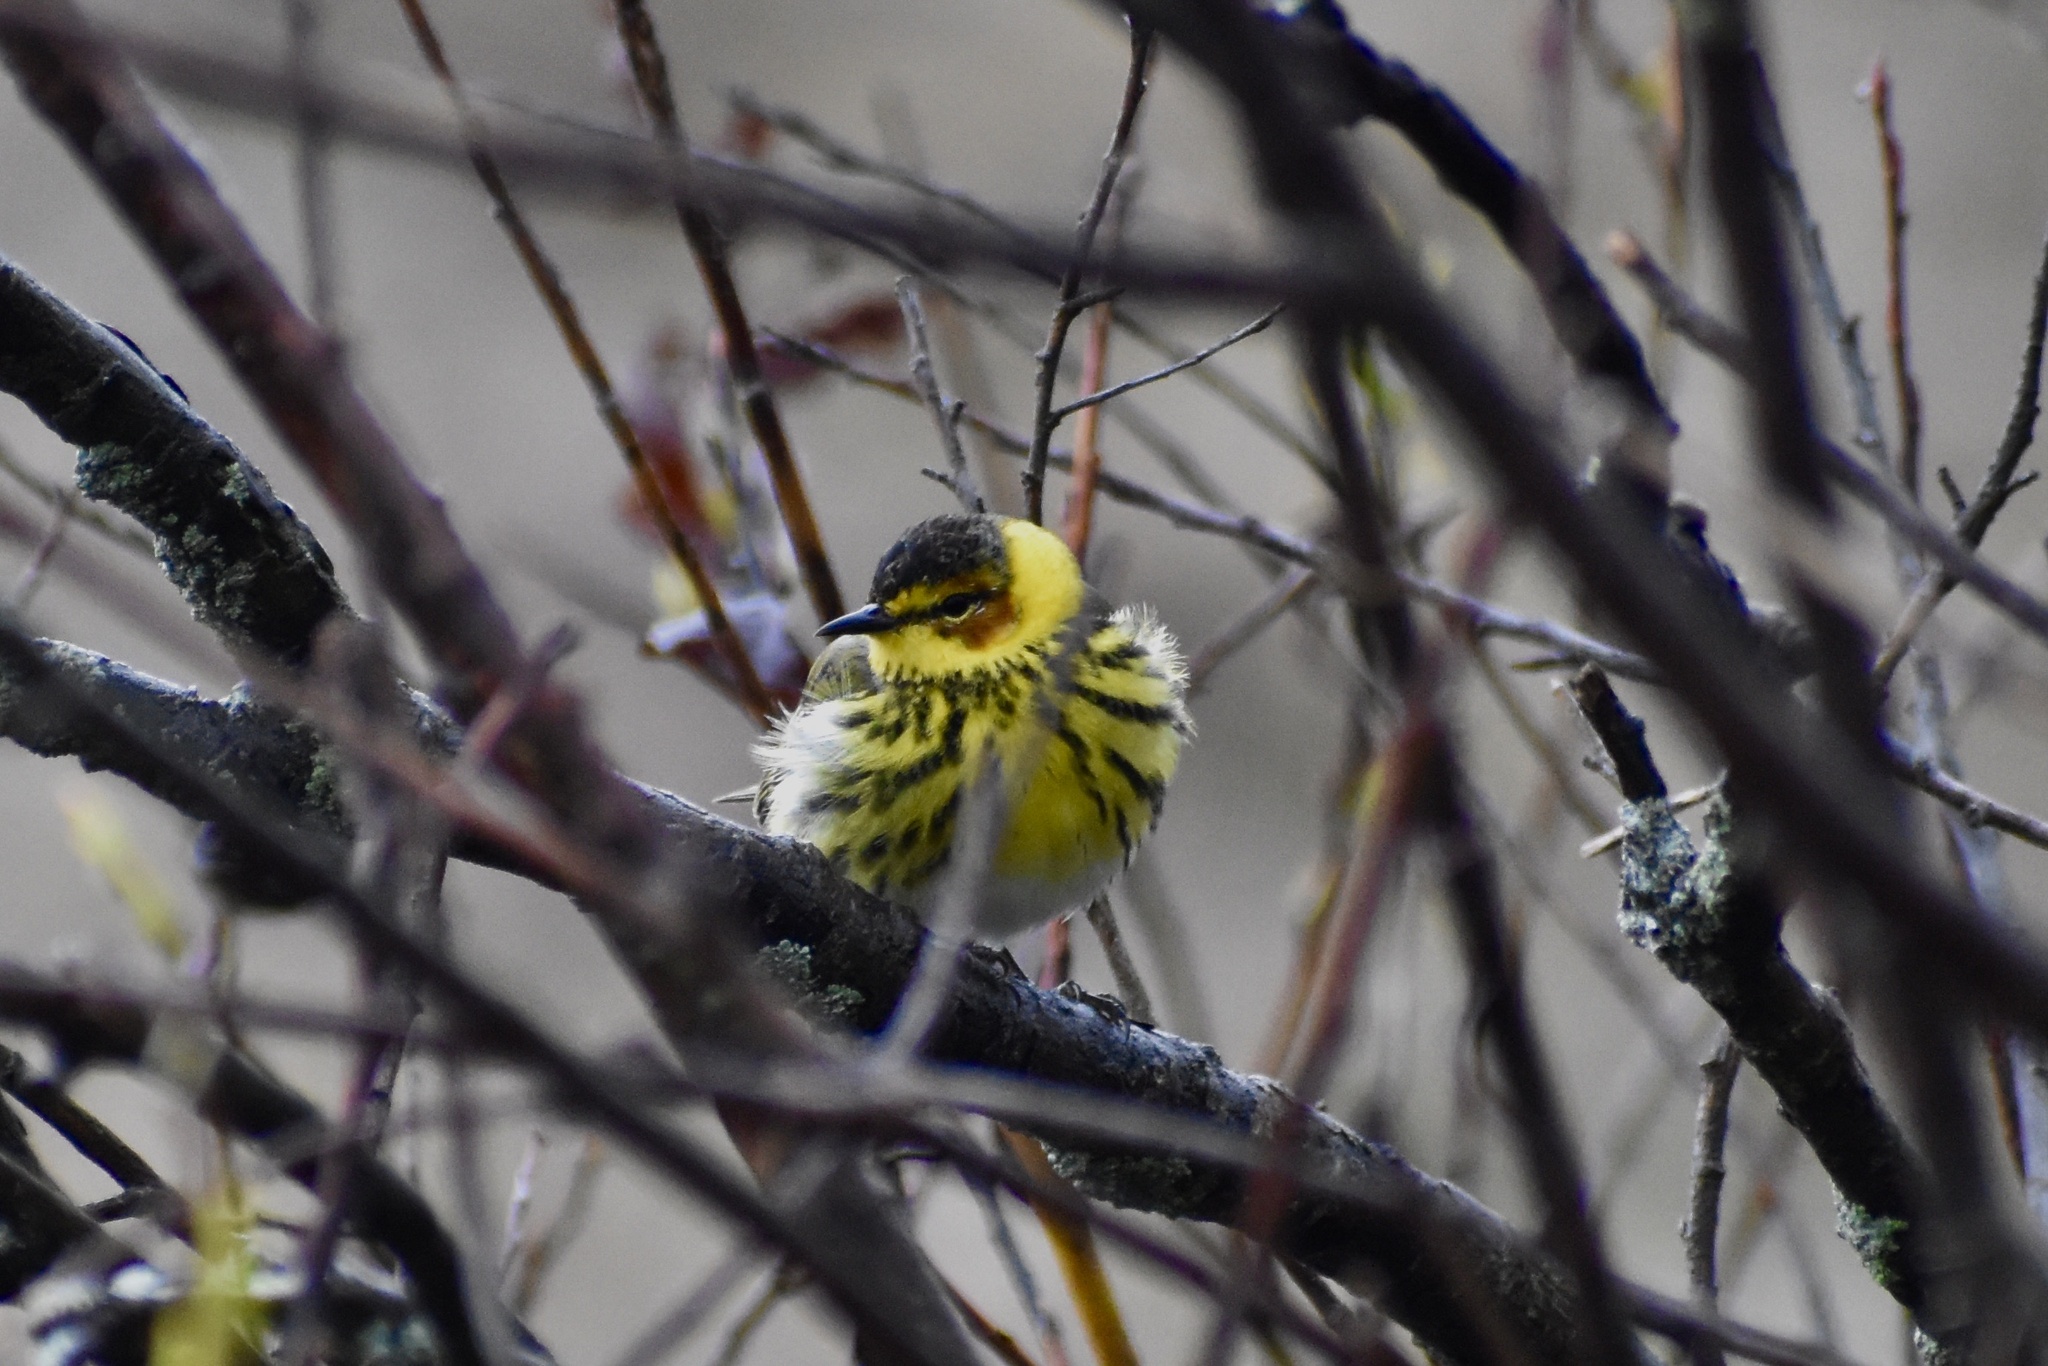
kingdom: Animalia
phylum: Chordata
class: Aves
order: Passeriformes
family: Parulidae
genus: Setophaga
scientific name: Setophaga tigrina
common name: Cape may warbler
